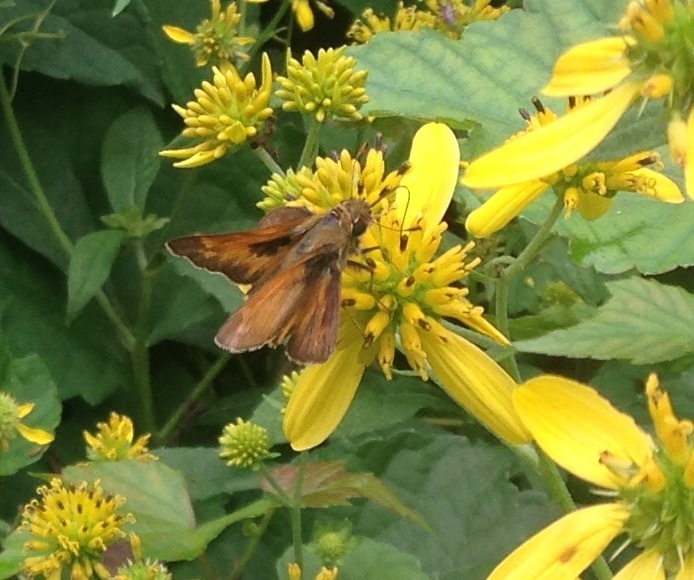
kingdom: Animalia
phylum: Arthropoda
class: Insecta
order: Lepidoptera
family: Hesperiidae
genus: Atalopedes
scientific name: Atalopedes
